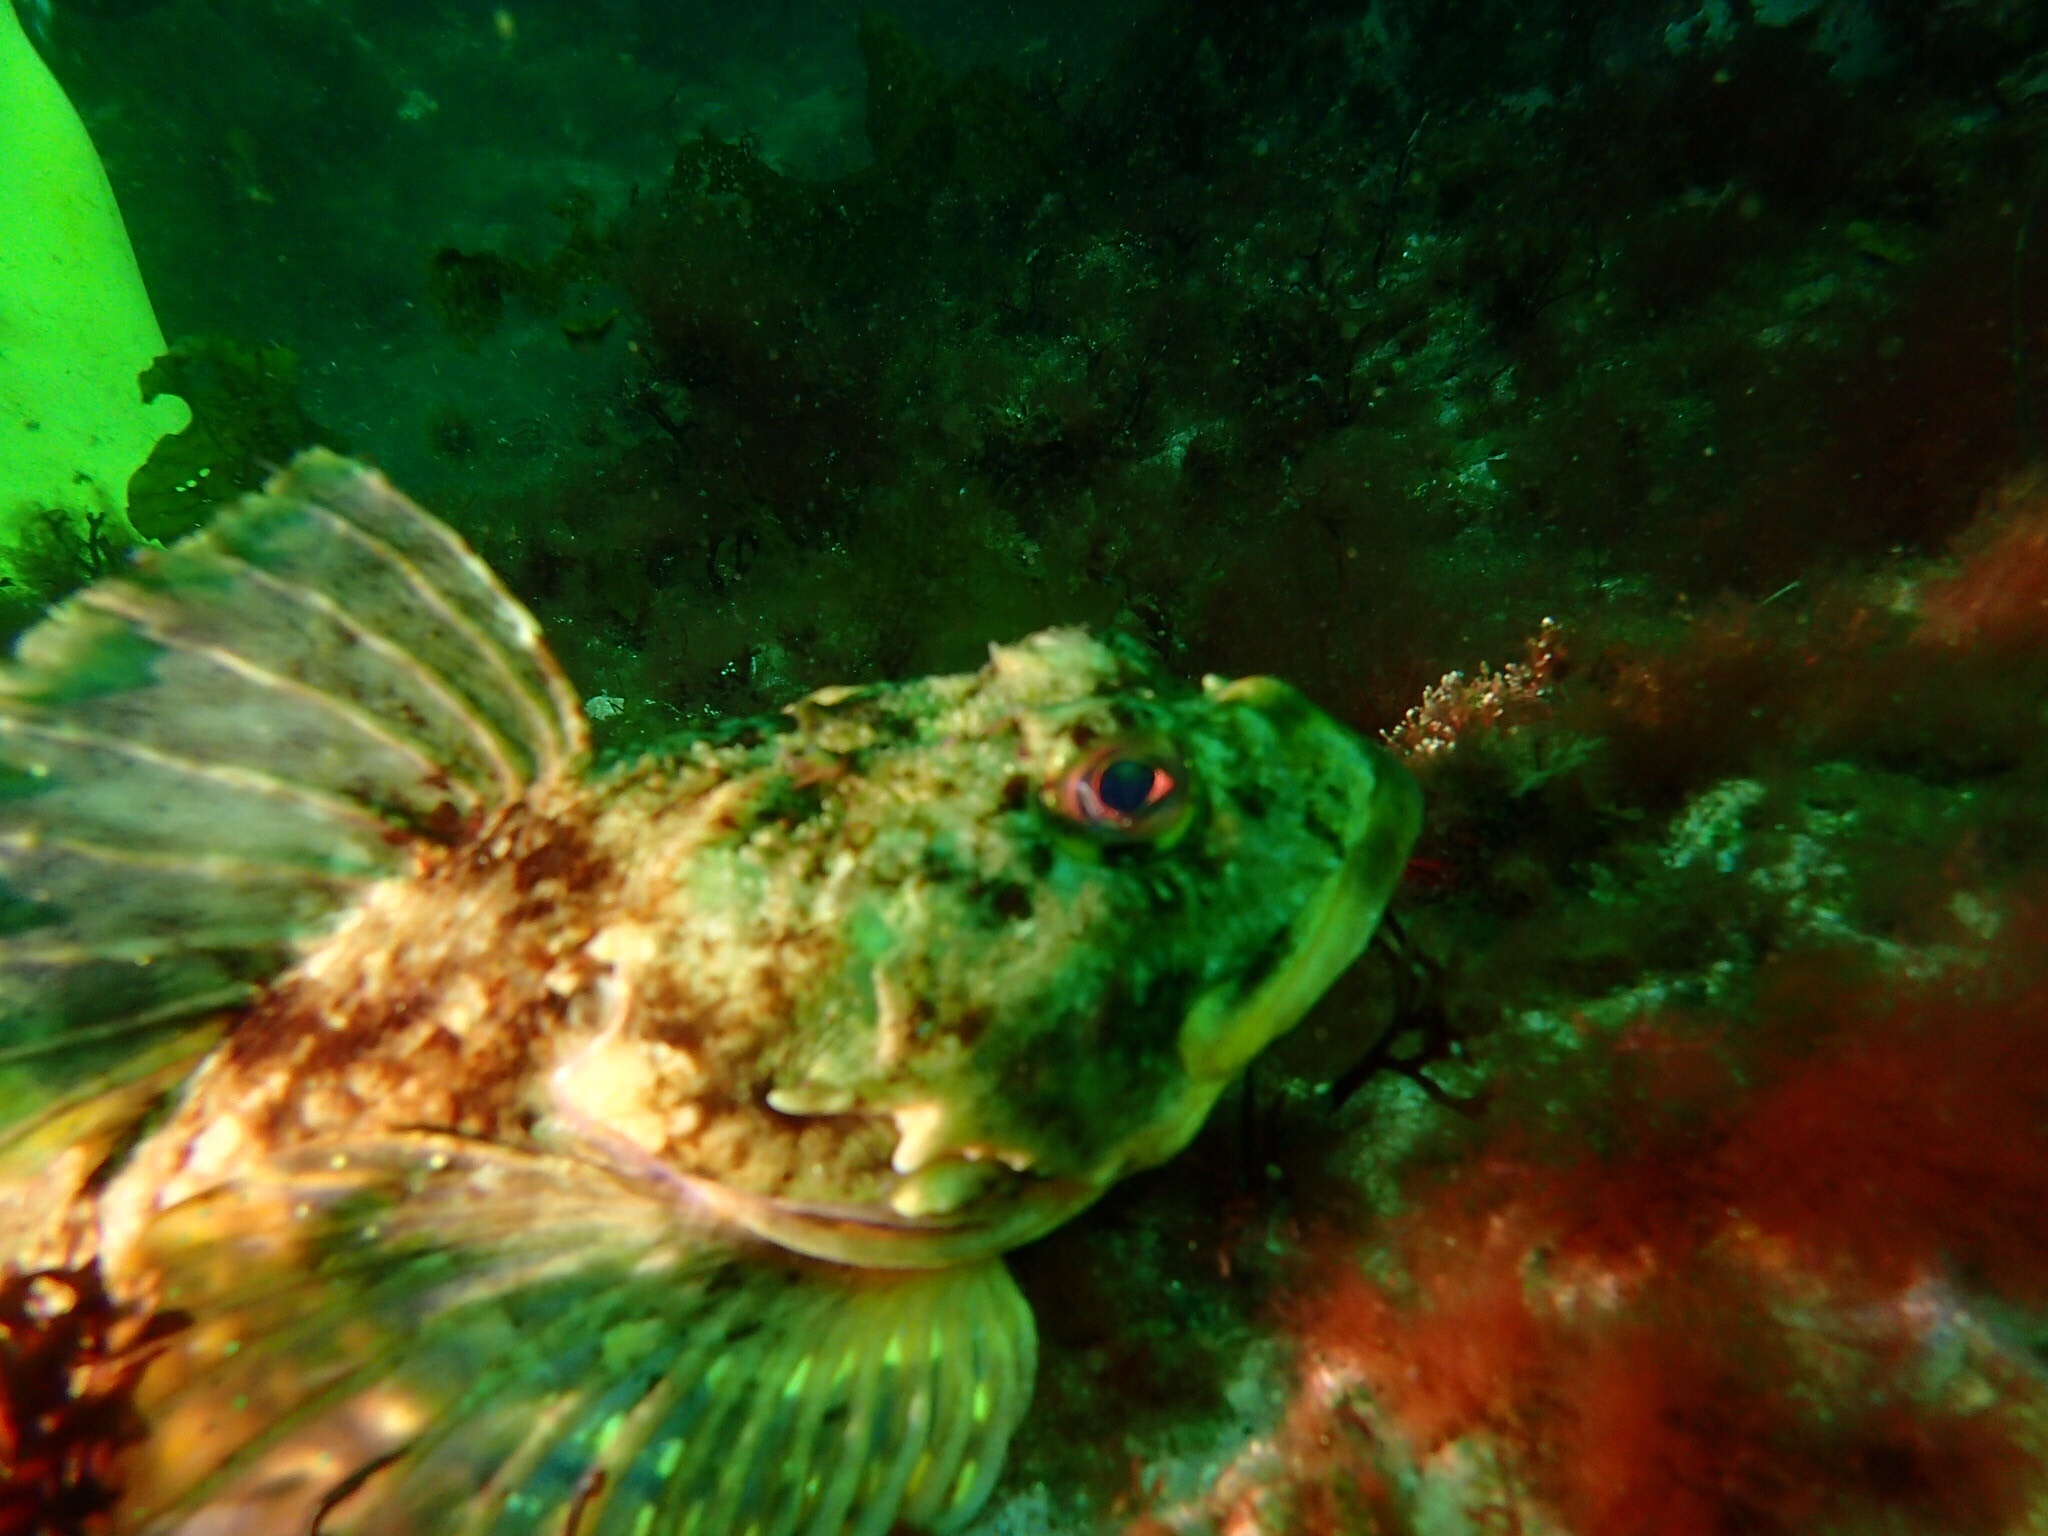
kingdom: Animalia
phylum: Chordata
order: Scorpaeniformes
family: Cottidae
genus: Myoxocephalus
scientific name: Myoxocephalus scorpius
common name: Shorthorn sculpin
